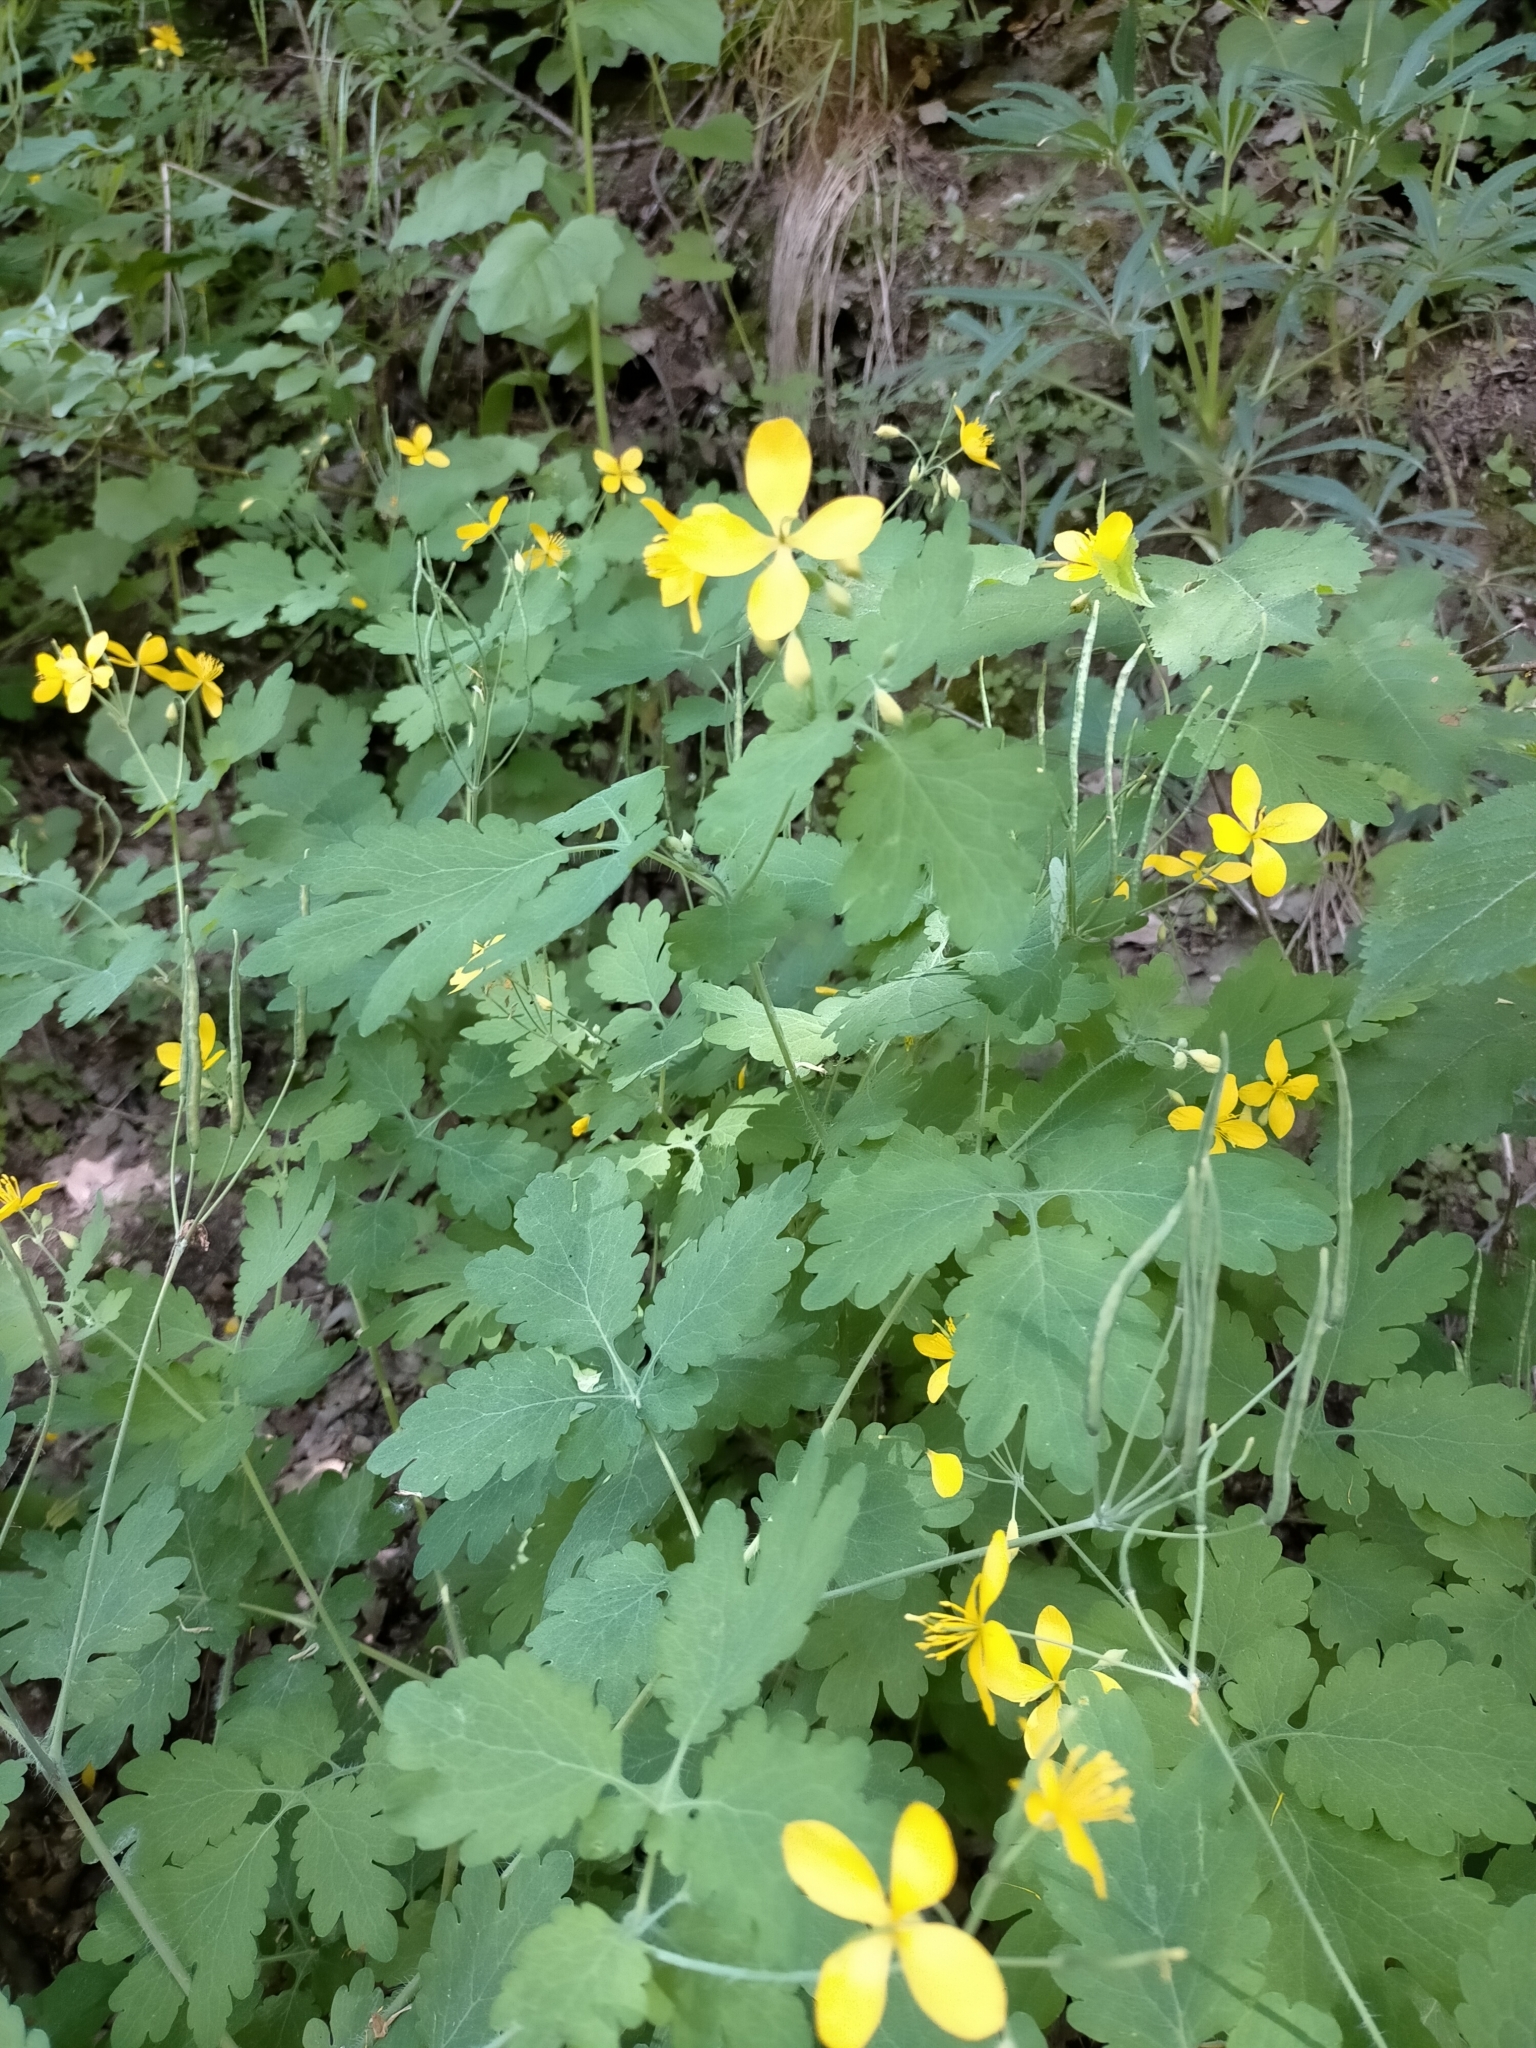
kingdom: Plantae
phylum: Tracheophyta
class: Magnoliopsida
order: Ranunculales
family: Papaveraceae
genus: Chelidonium
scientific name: Chelidonium majus
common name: Greater celandine
